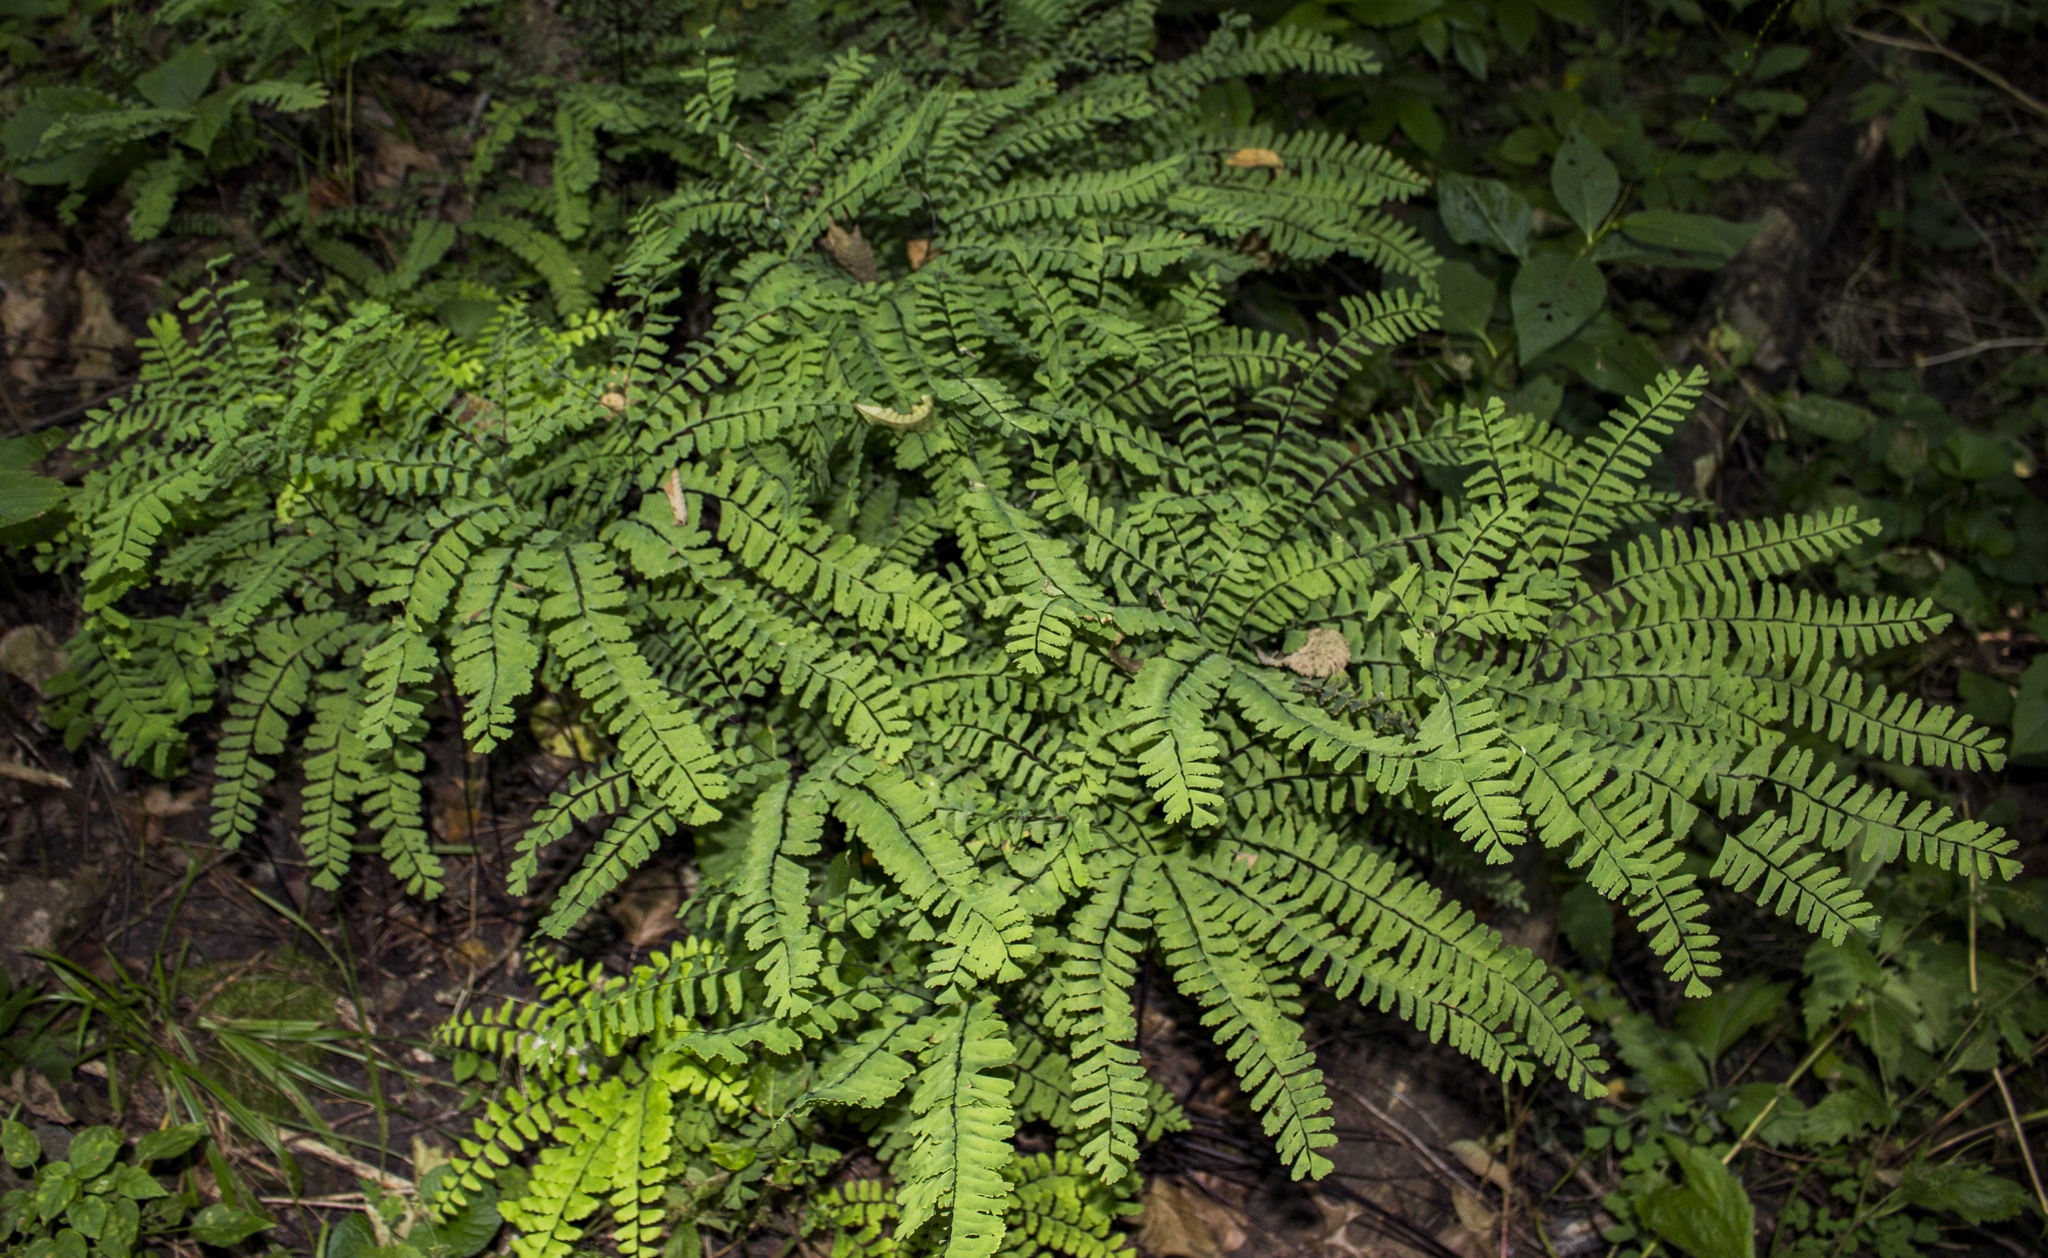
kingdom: Plantae
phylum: Tracheophyta
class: Polypodiopsida
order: Polypodiales
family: Pteridaceae
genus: Adiantum
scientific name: Adiantum pedatum
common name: Five-finger fern
